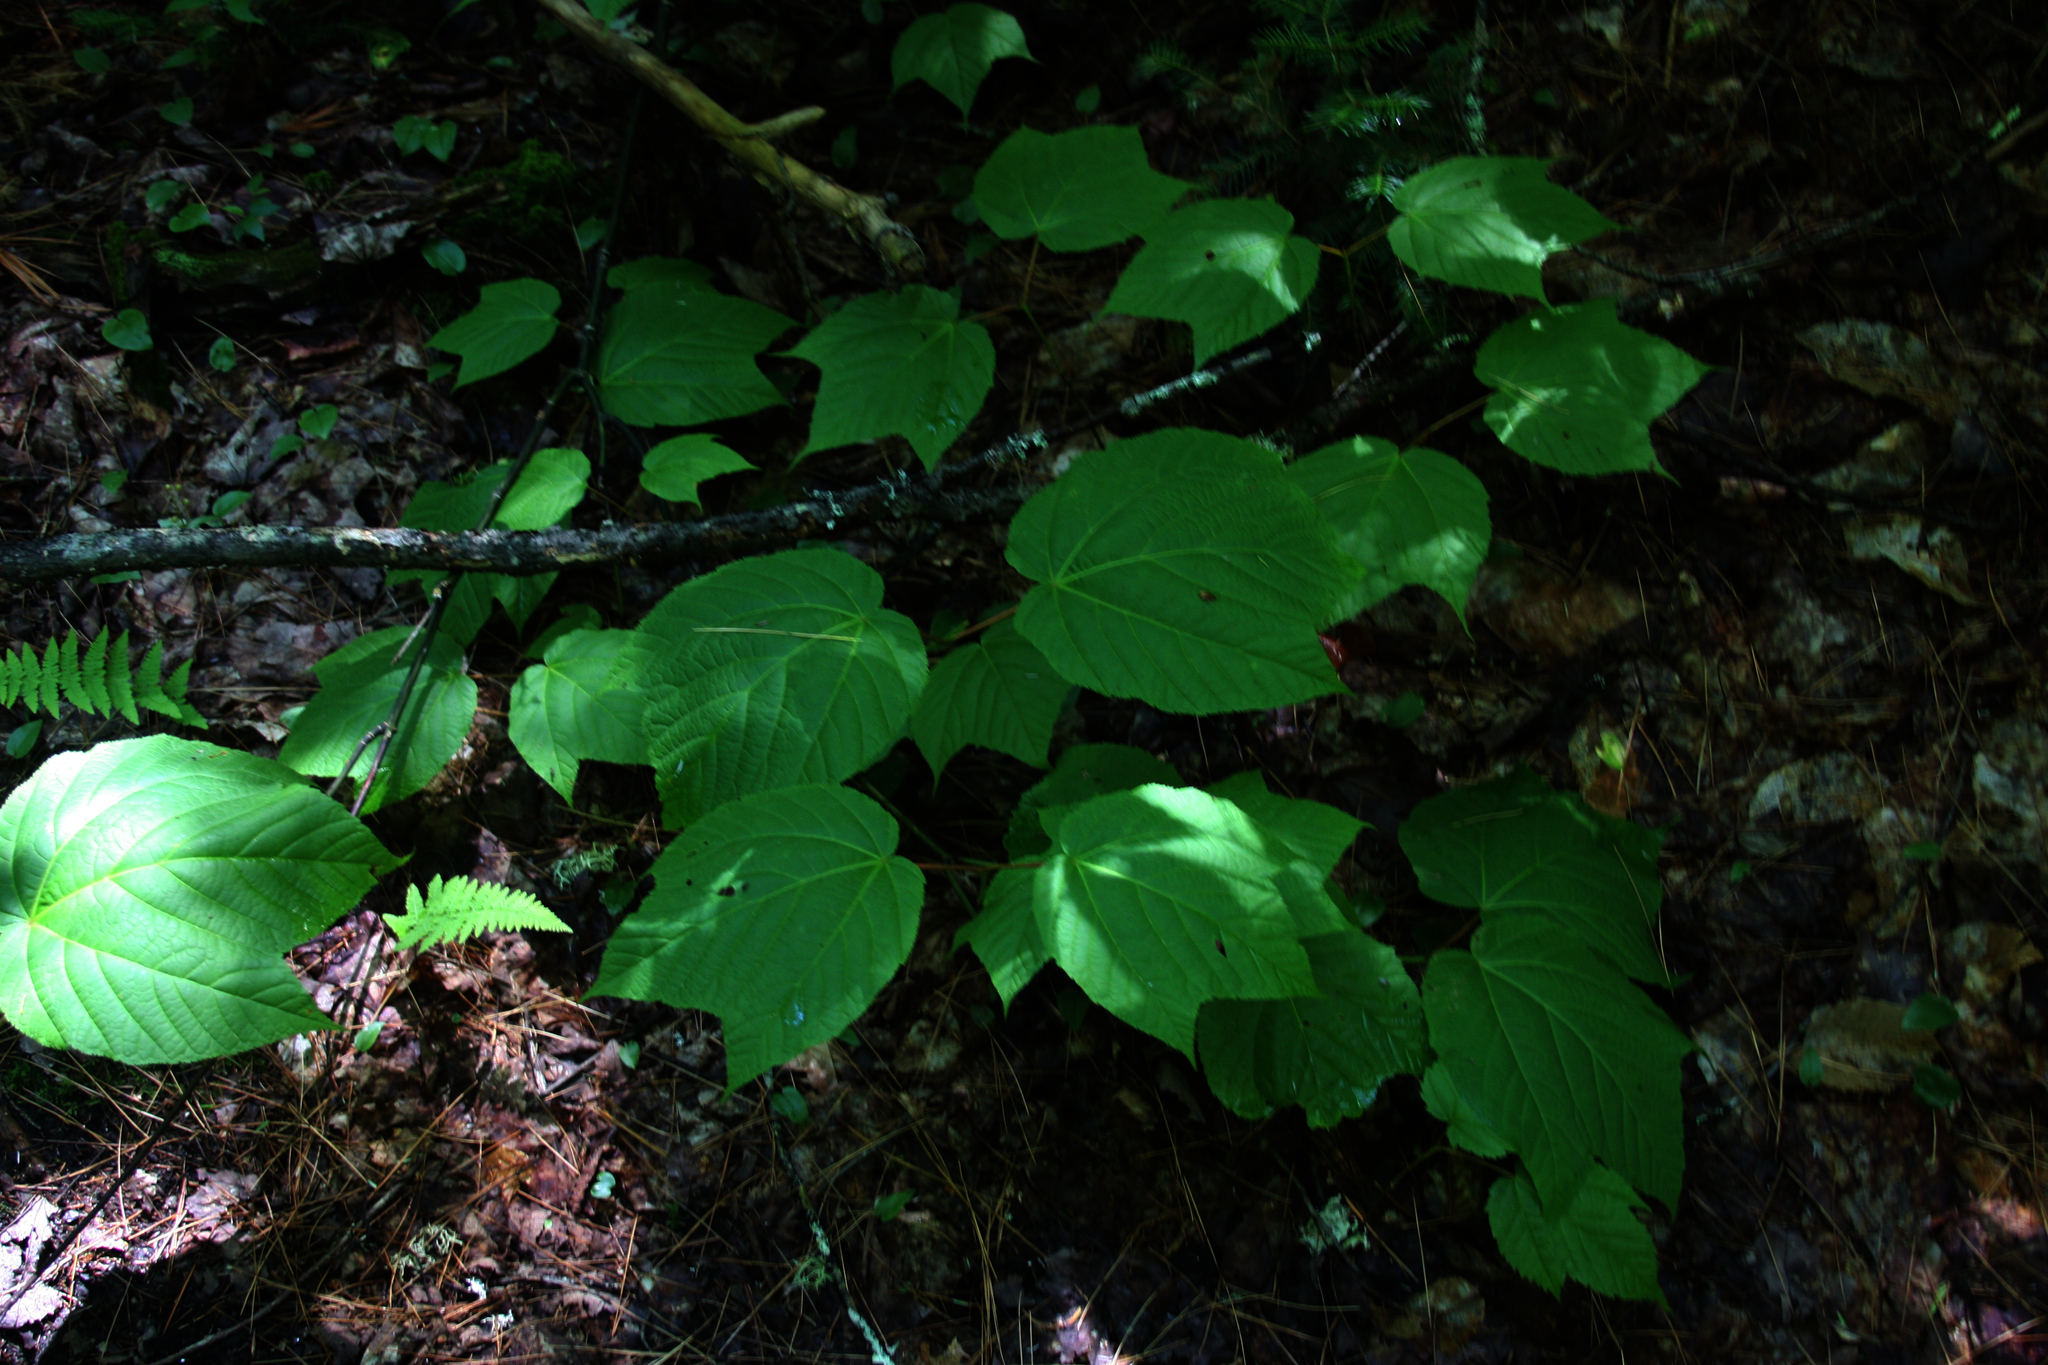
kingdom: Plantae
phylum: Tracheophyta
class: Magnoliopsida
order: Sapindales
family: Sapindaceae
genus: Acer
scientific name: Acer pensylvanicum
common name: Moosewood
